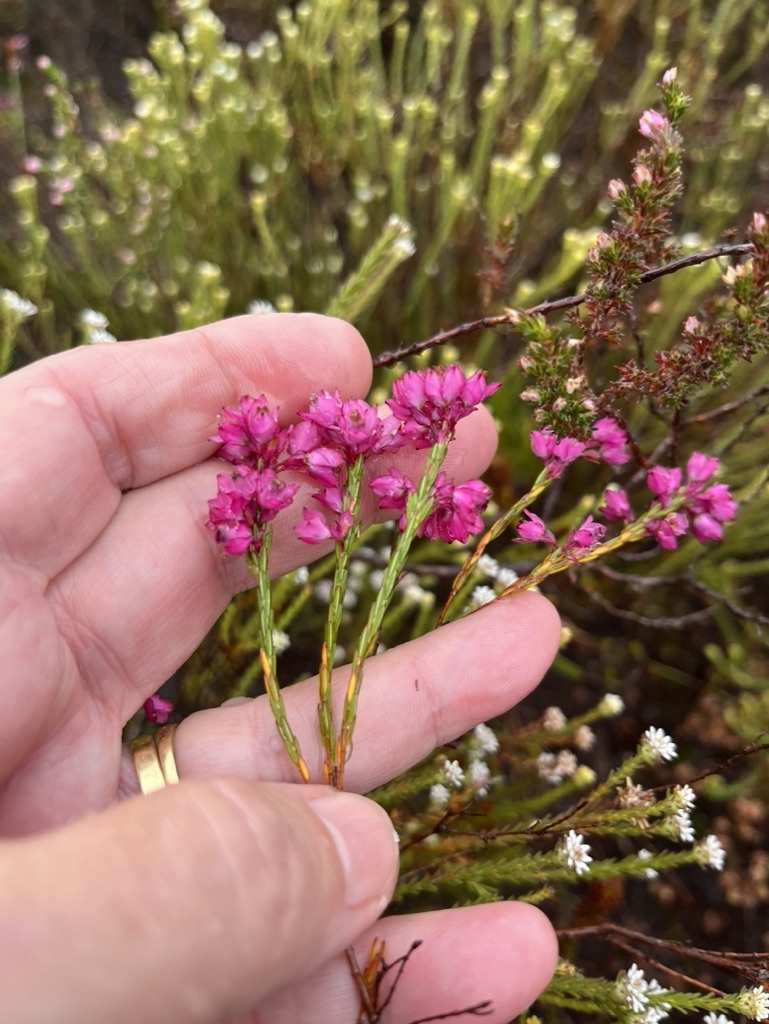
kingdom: Plantae
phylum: Tracheophyta
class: Magnoliopsida
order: Ericales
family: Ericaceae
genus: Erica
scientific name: Erica corifolia
